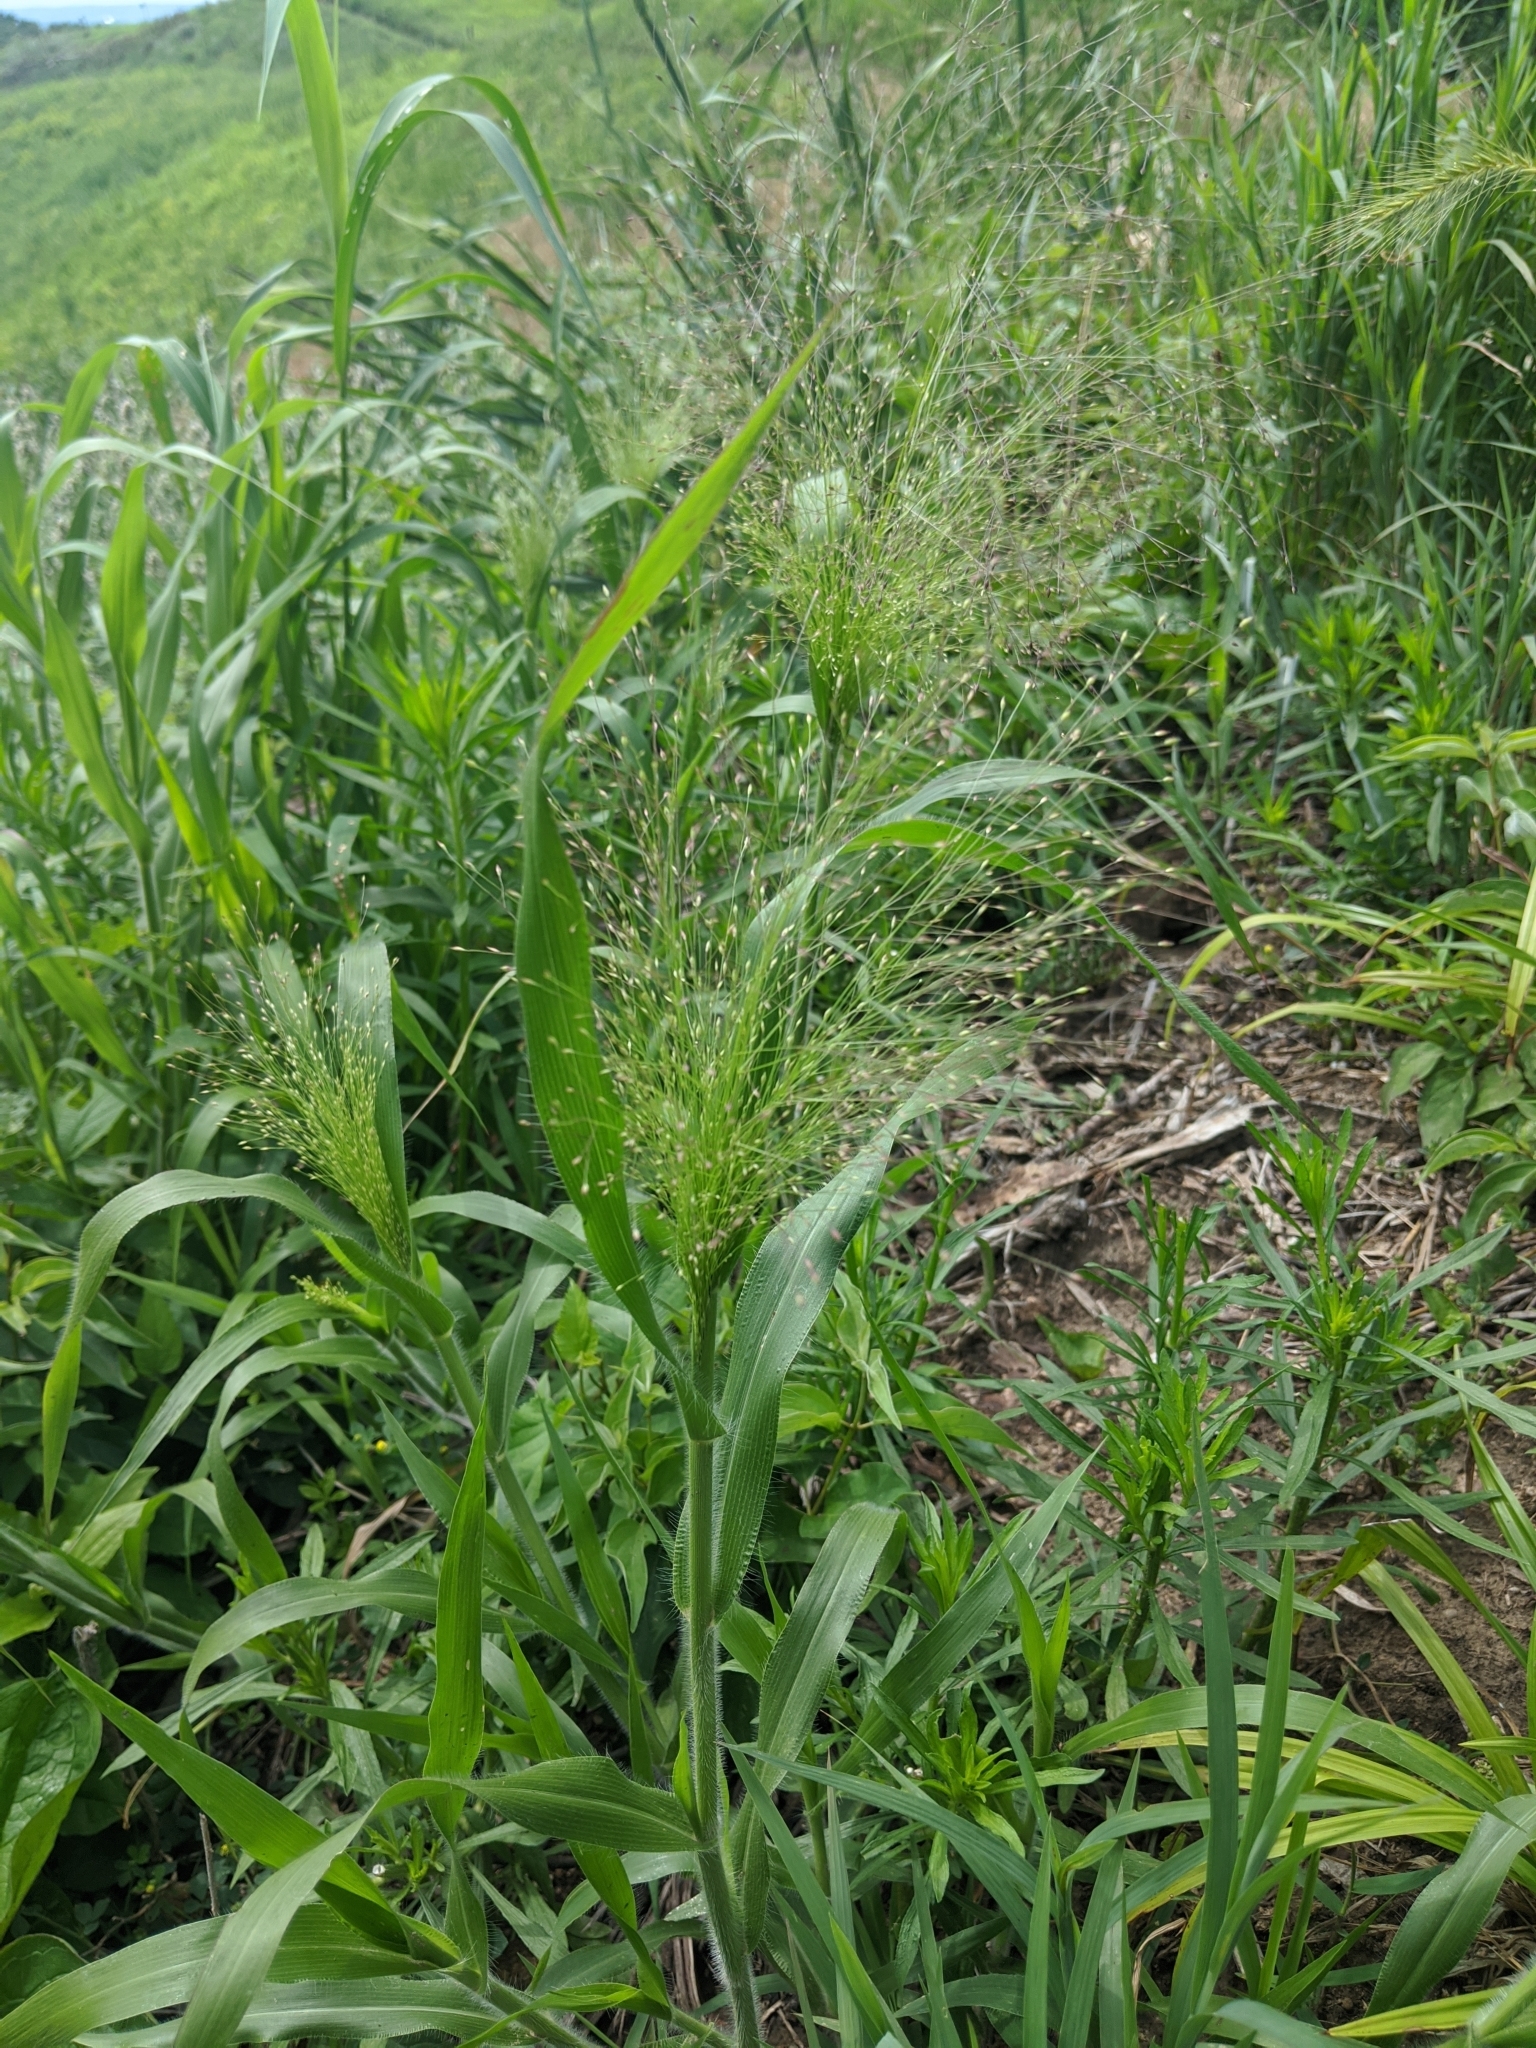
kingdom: Plantae
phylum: Tracheophyta
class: Liliopsida
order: Poales
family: Poaceae
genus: Panicum
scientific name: Panicum capillare
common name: Witch-grass
